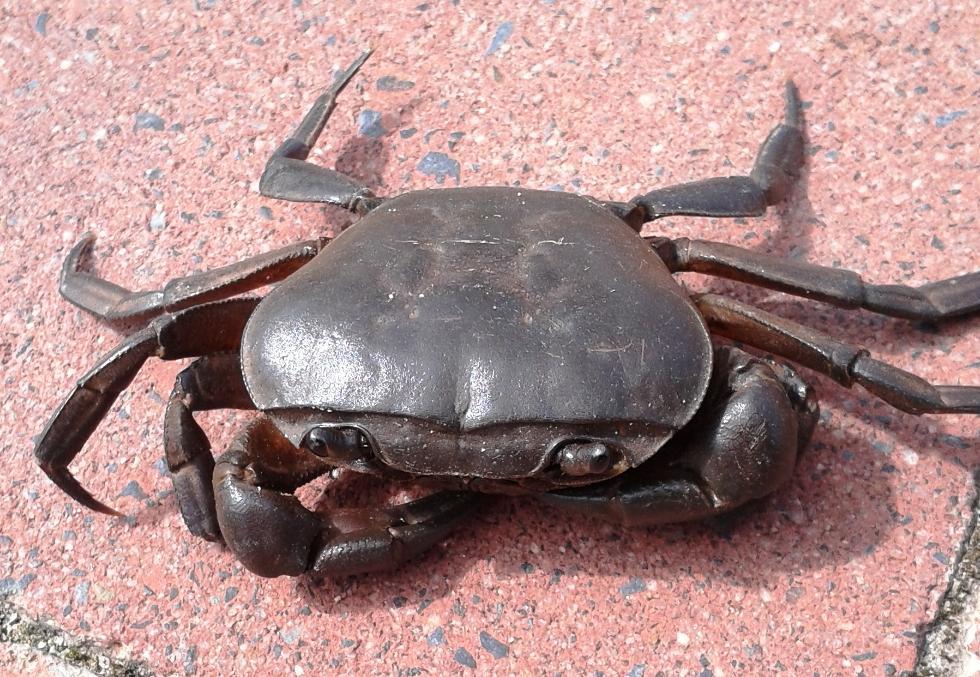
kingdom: Animalia
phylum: Arthropoda
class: Malacostraca
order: Decapoda
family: Potamonautidae
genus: Potamonautes
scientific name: Potamonautes perlatus
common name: Cape river crab
